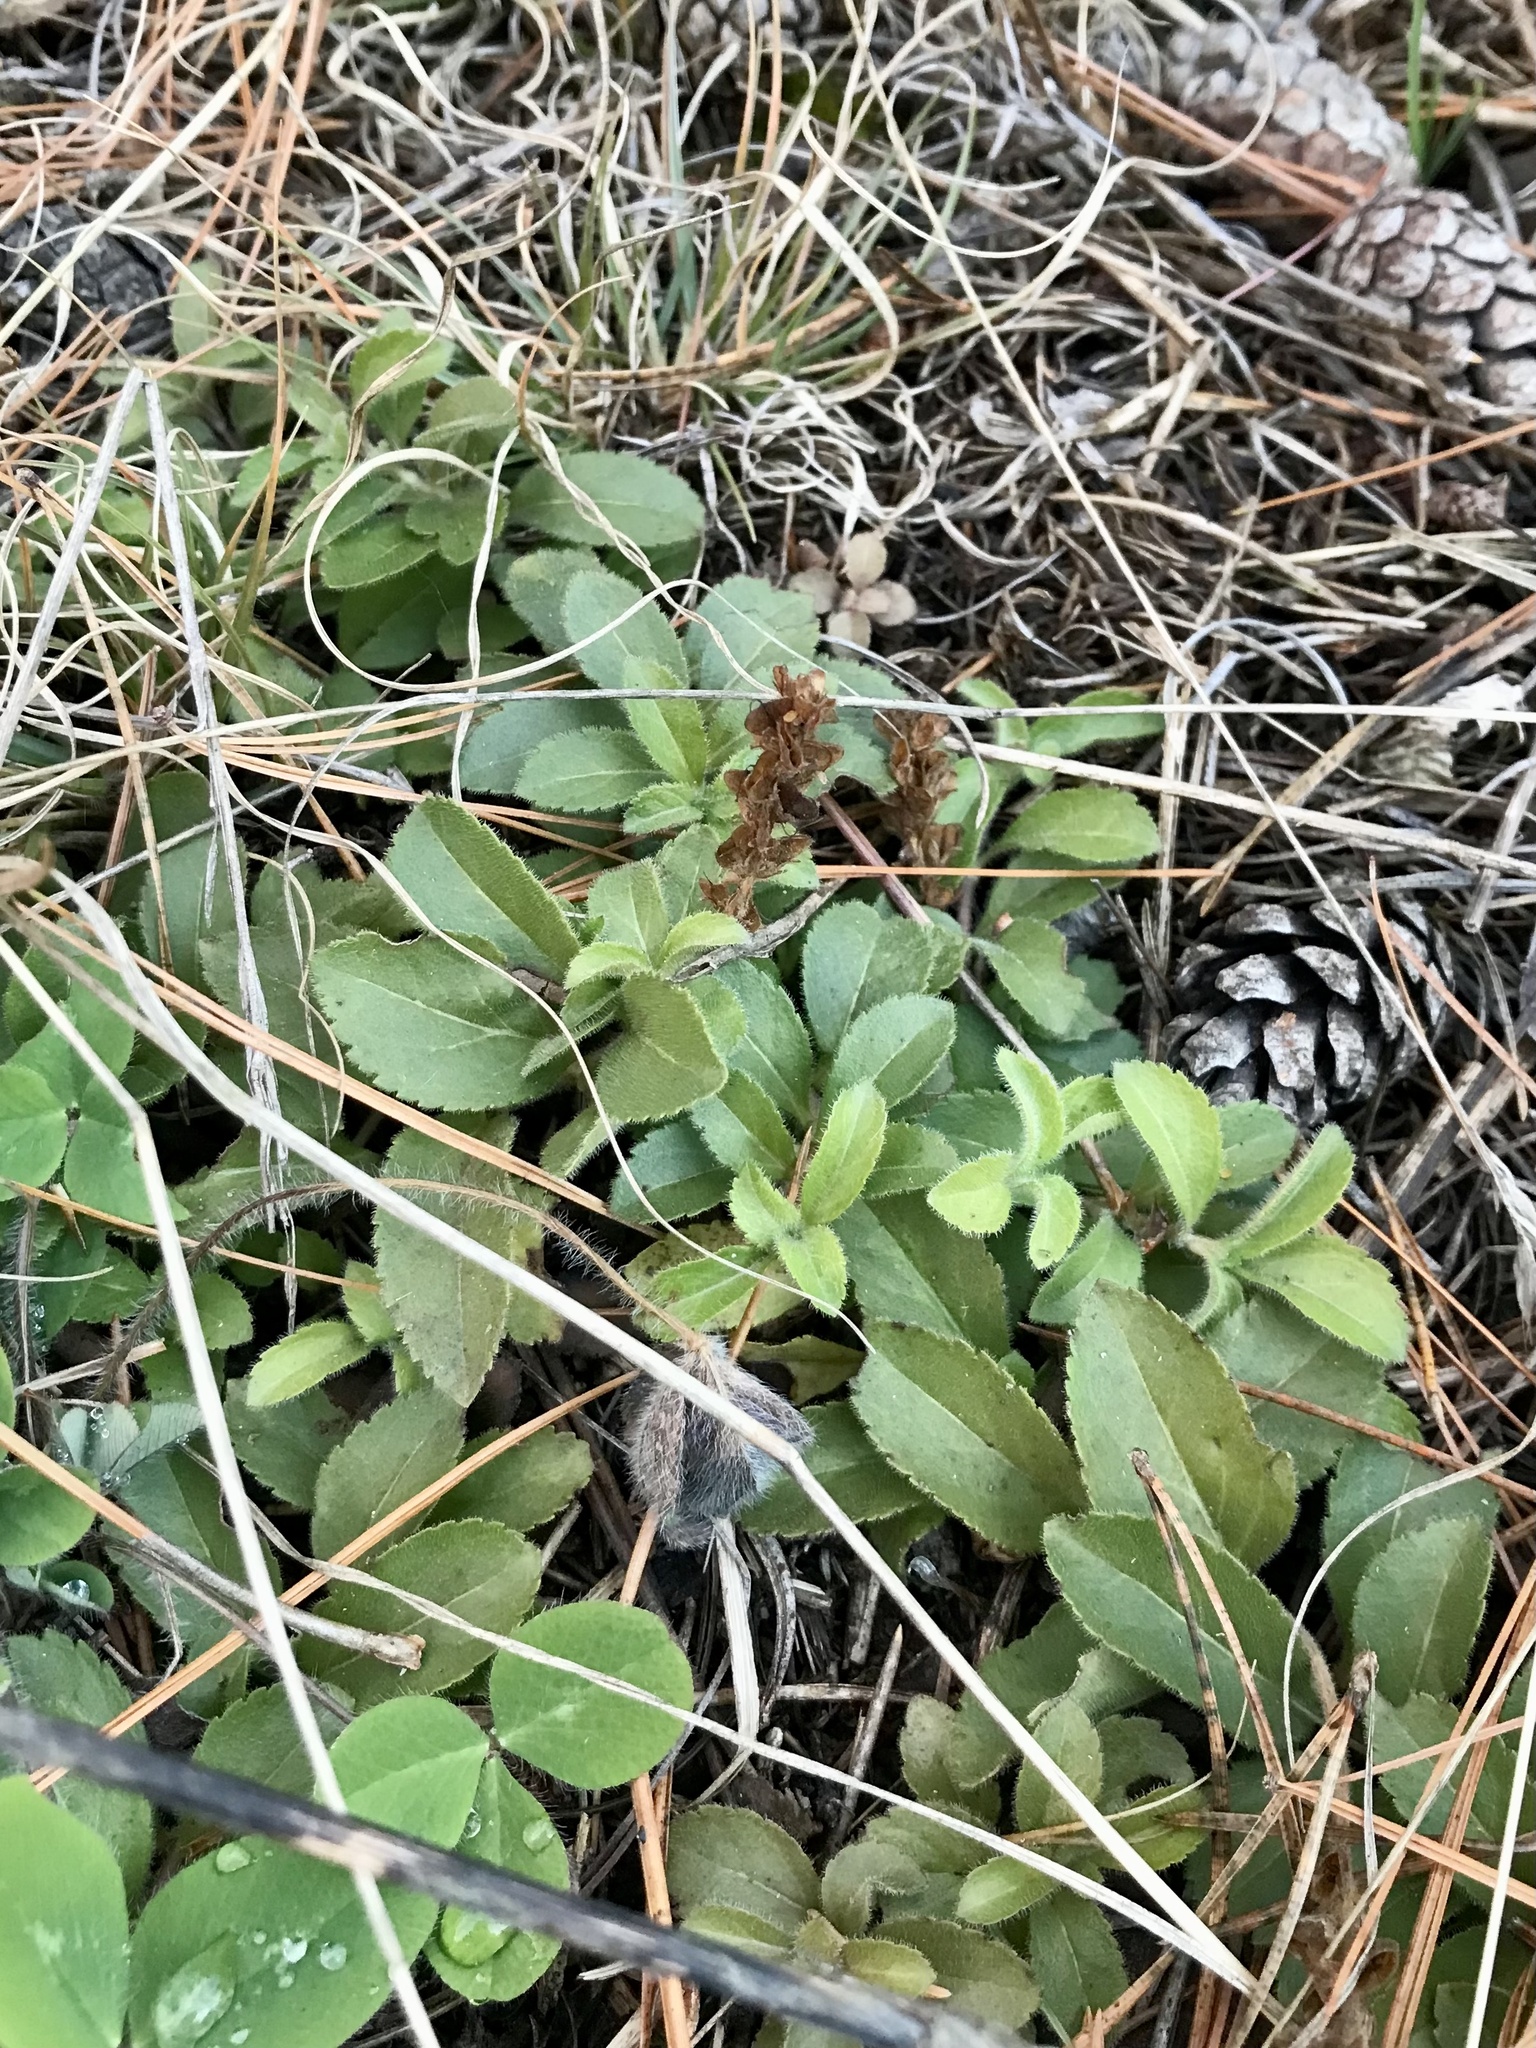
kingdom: Plantae
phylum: Tracheophyta
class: Magnoliopsida
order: Lamiales
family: Plantaginaceae
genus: Veronica
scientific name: Veronica officinalis
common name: Common speedwell
